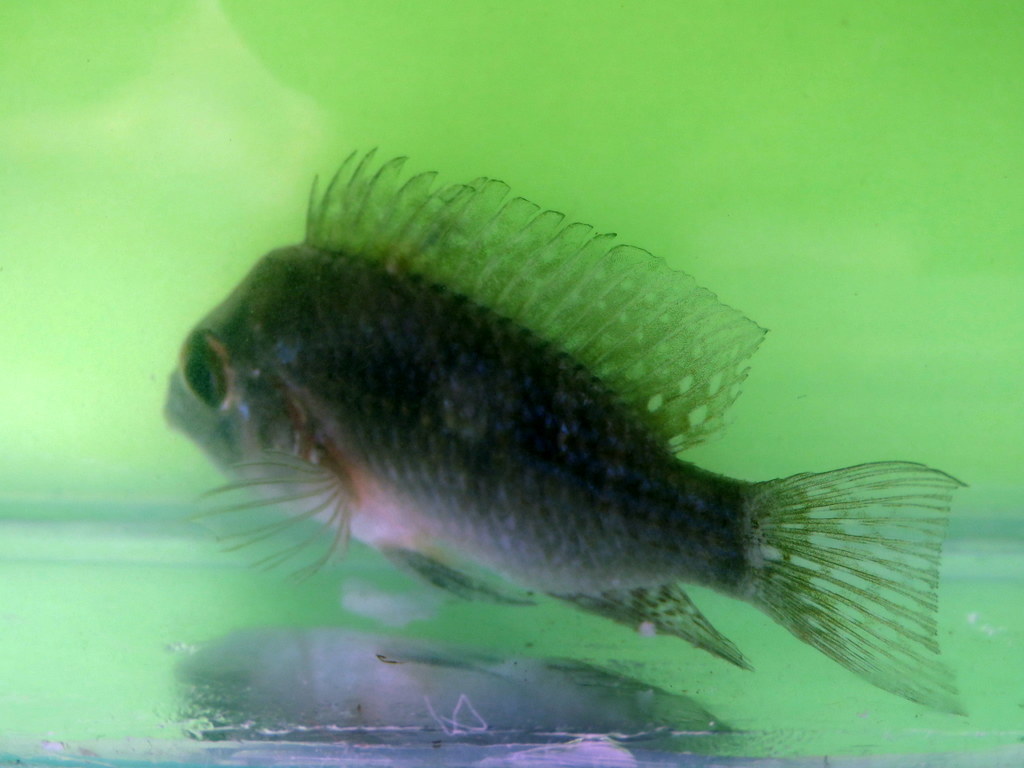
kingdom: Animalia
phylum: Chordata
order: Perciformes
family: Cichlidae
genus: Gymnogeophagus
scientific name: Gymnogeophagus meridionalis
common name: Earth eater
